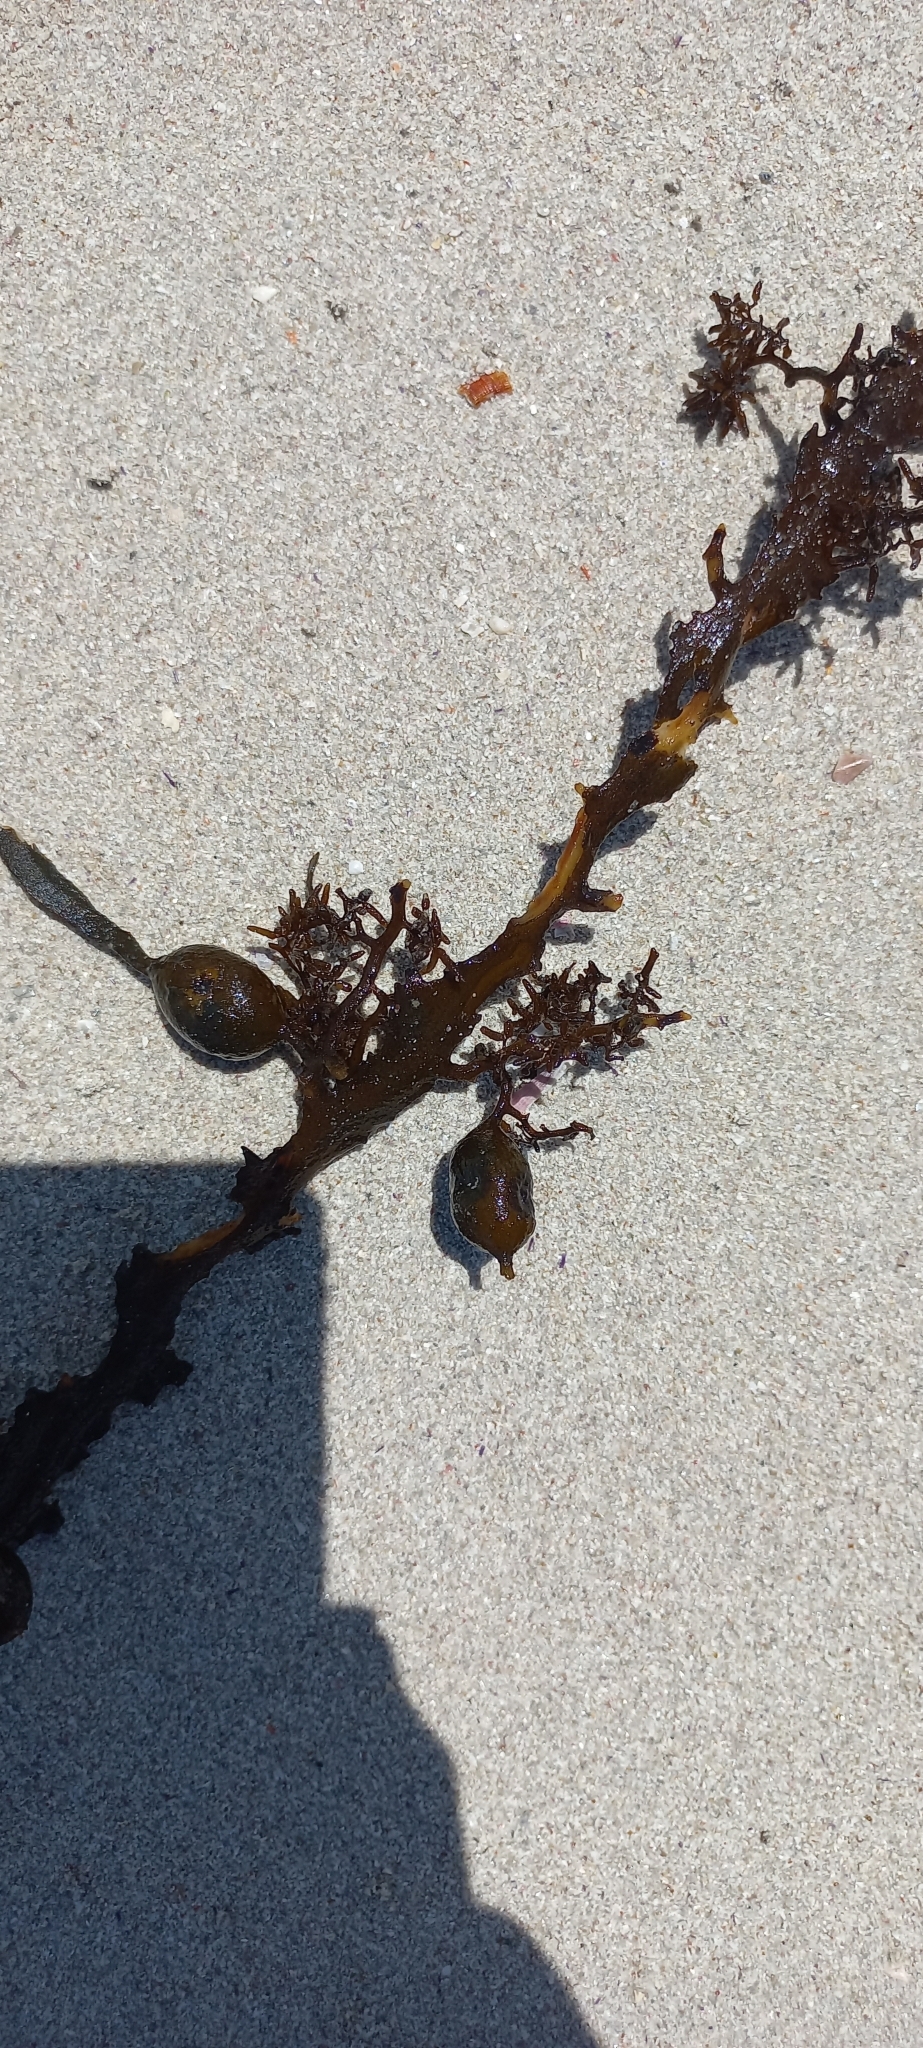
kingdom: Chromista
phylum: Ochrophyta
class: Phaeophyceae
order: Fucales
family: Sargassaceae
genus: Anthophycus
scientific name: Anthophycus
